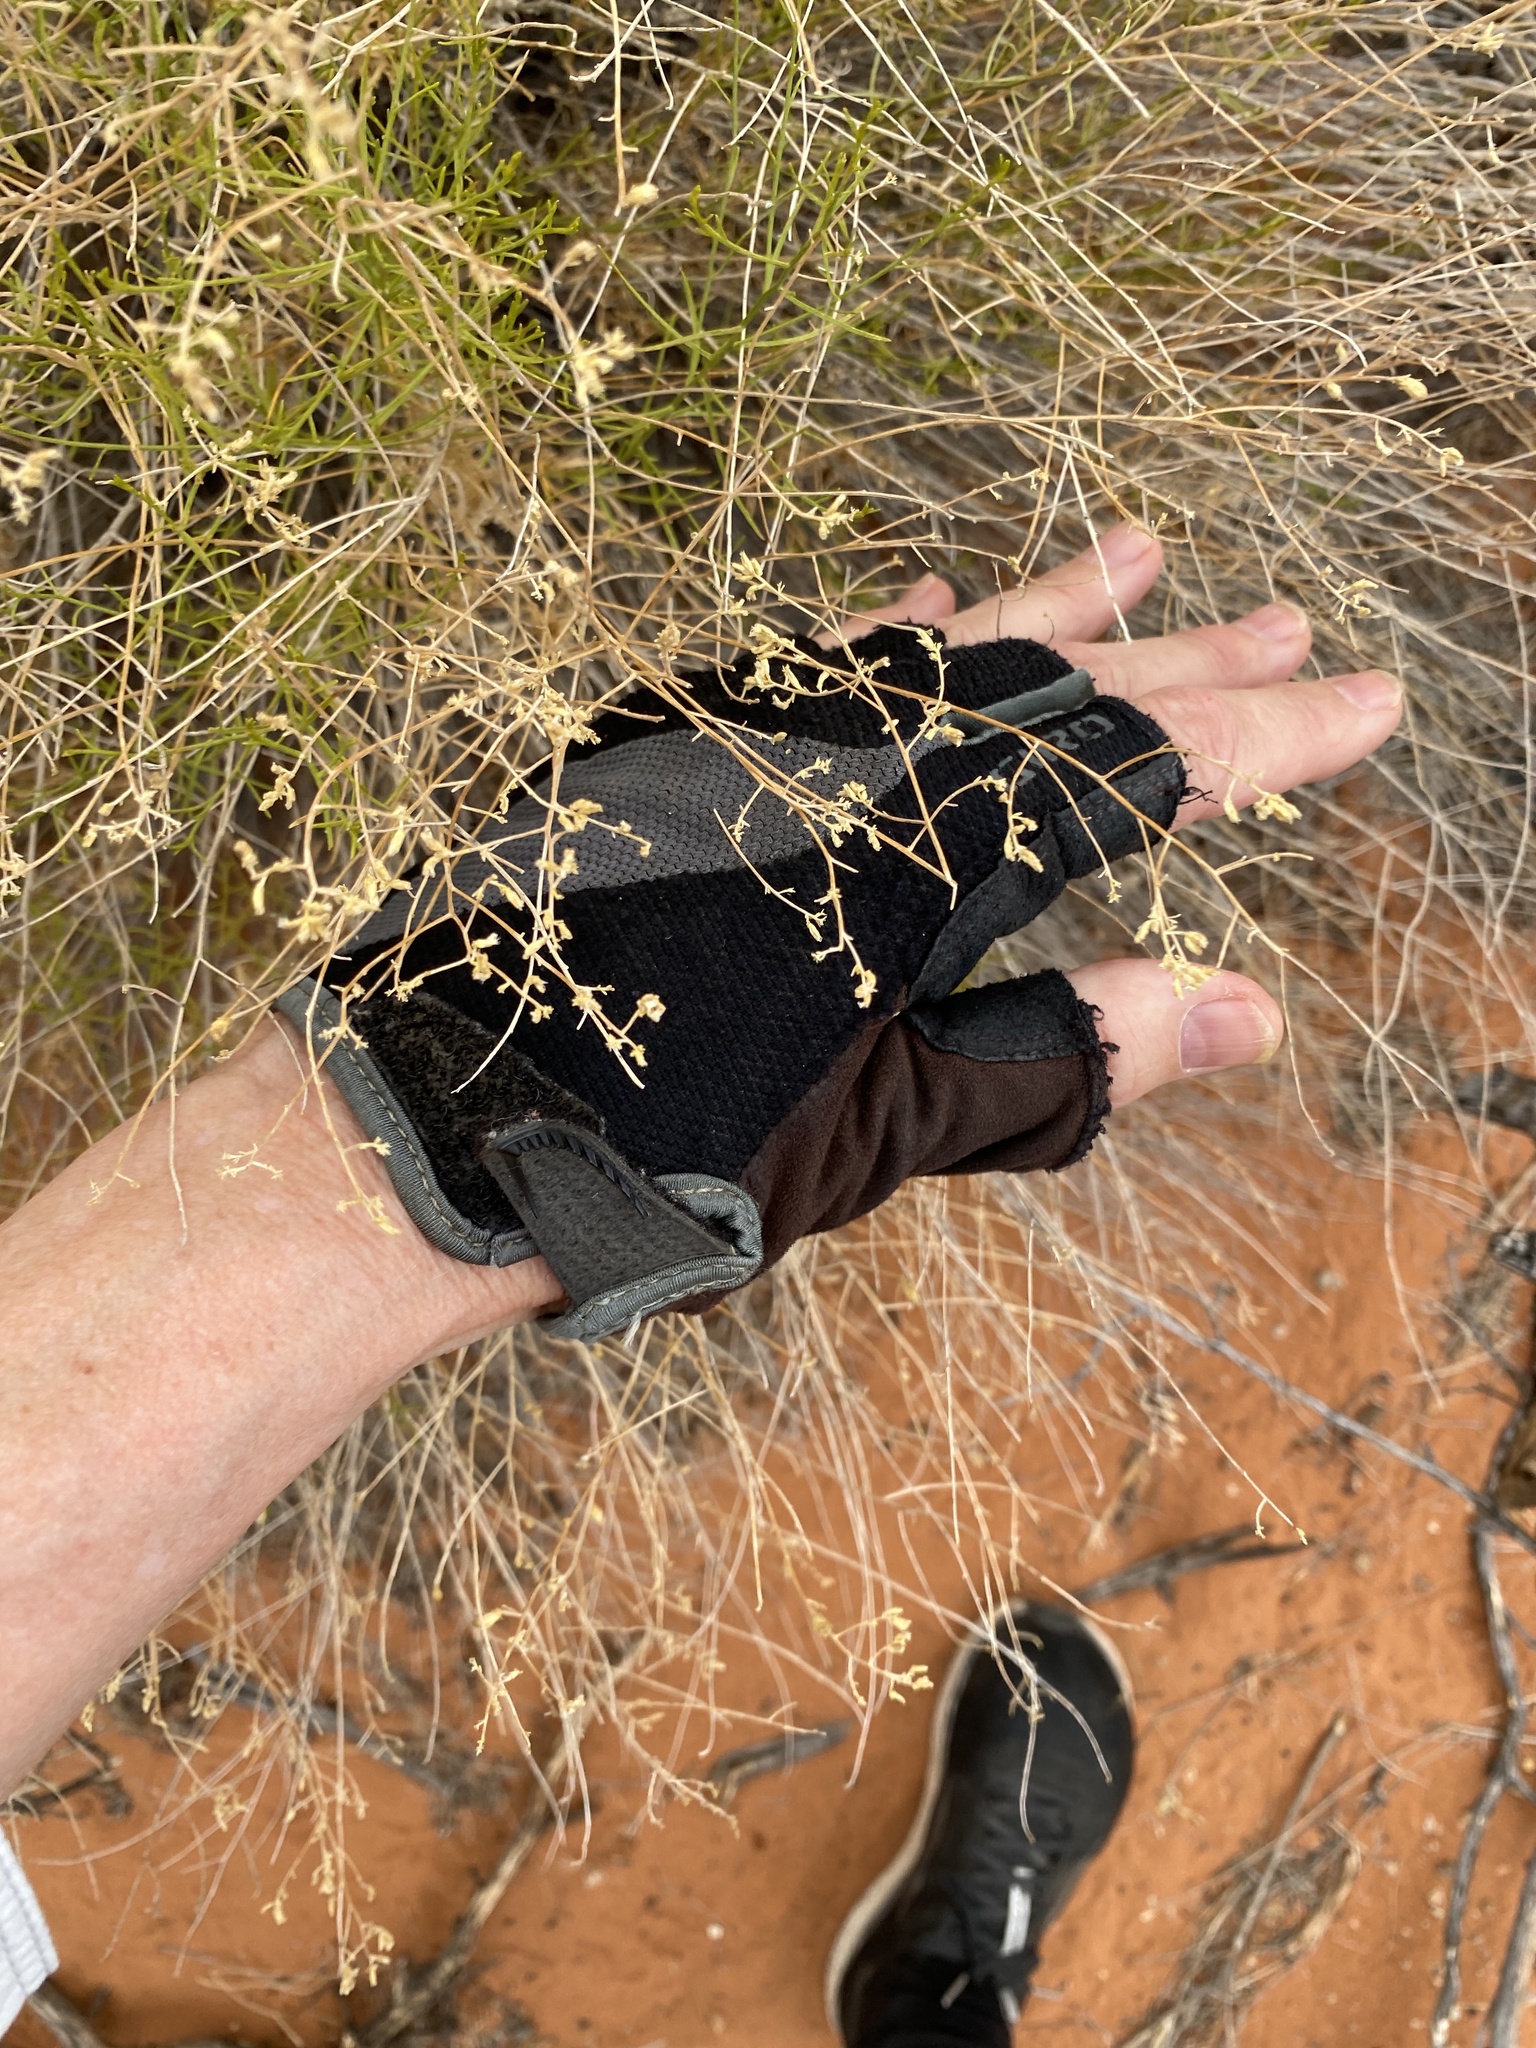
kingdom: Plantae
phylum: Tracheophyta
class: Magnoliopsida
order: Asterales
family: Asteraceae
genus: Gutierrezia
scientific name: Gutierrezia sarothrae
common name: Broom snakeweed
